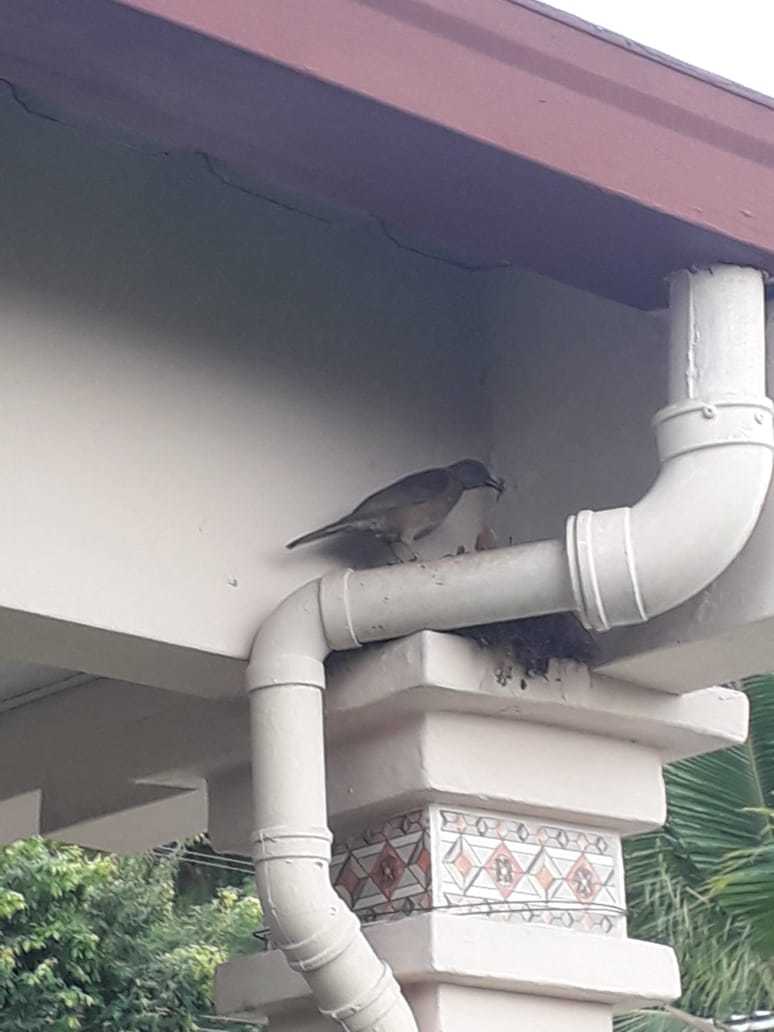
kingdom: Animalia
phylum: Chordata
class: Aves
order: Passeriformes
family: Turdidae
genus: Turdus
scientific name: Turdus grayi
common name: Clay-colored thrush
